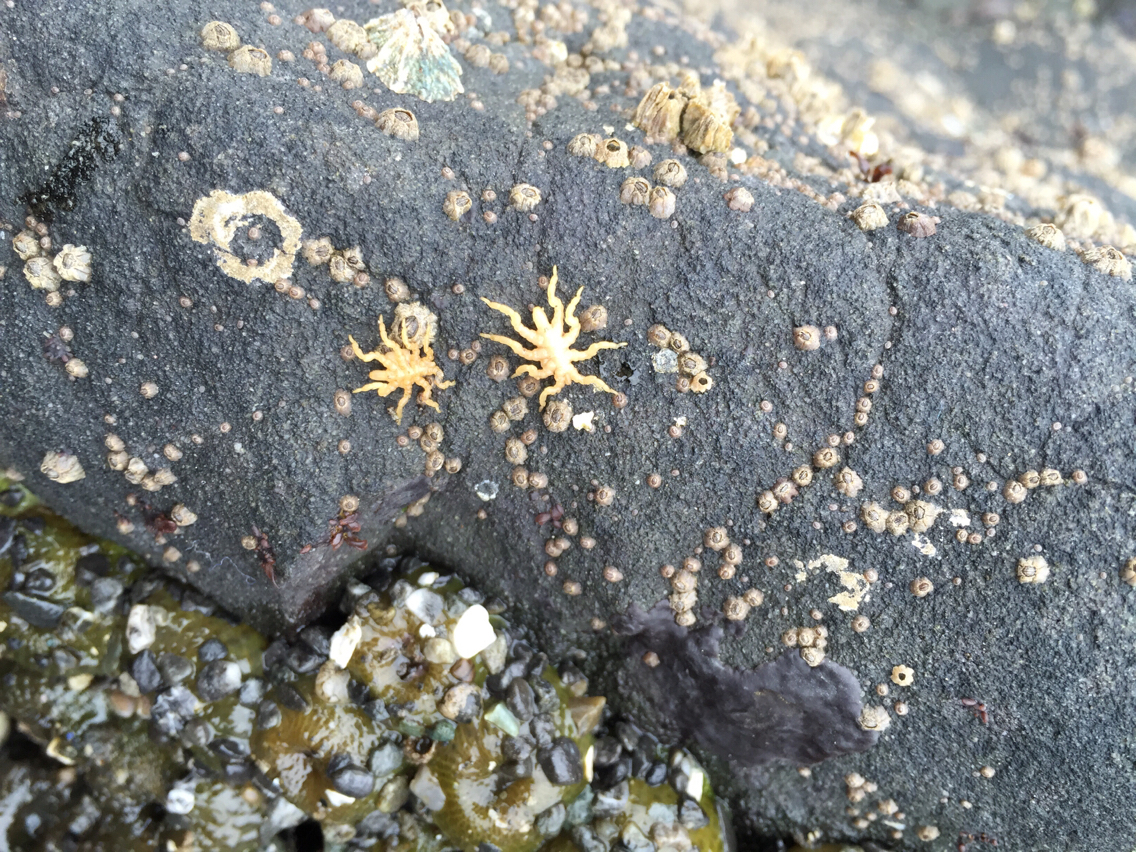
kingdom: Animalia
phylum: Arthropoda
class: Pycnogonida
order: Pantopoda
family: Pycnogonidae
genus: Pycnogonum
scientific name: Pycnogonum stearnsi
